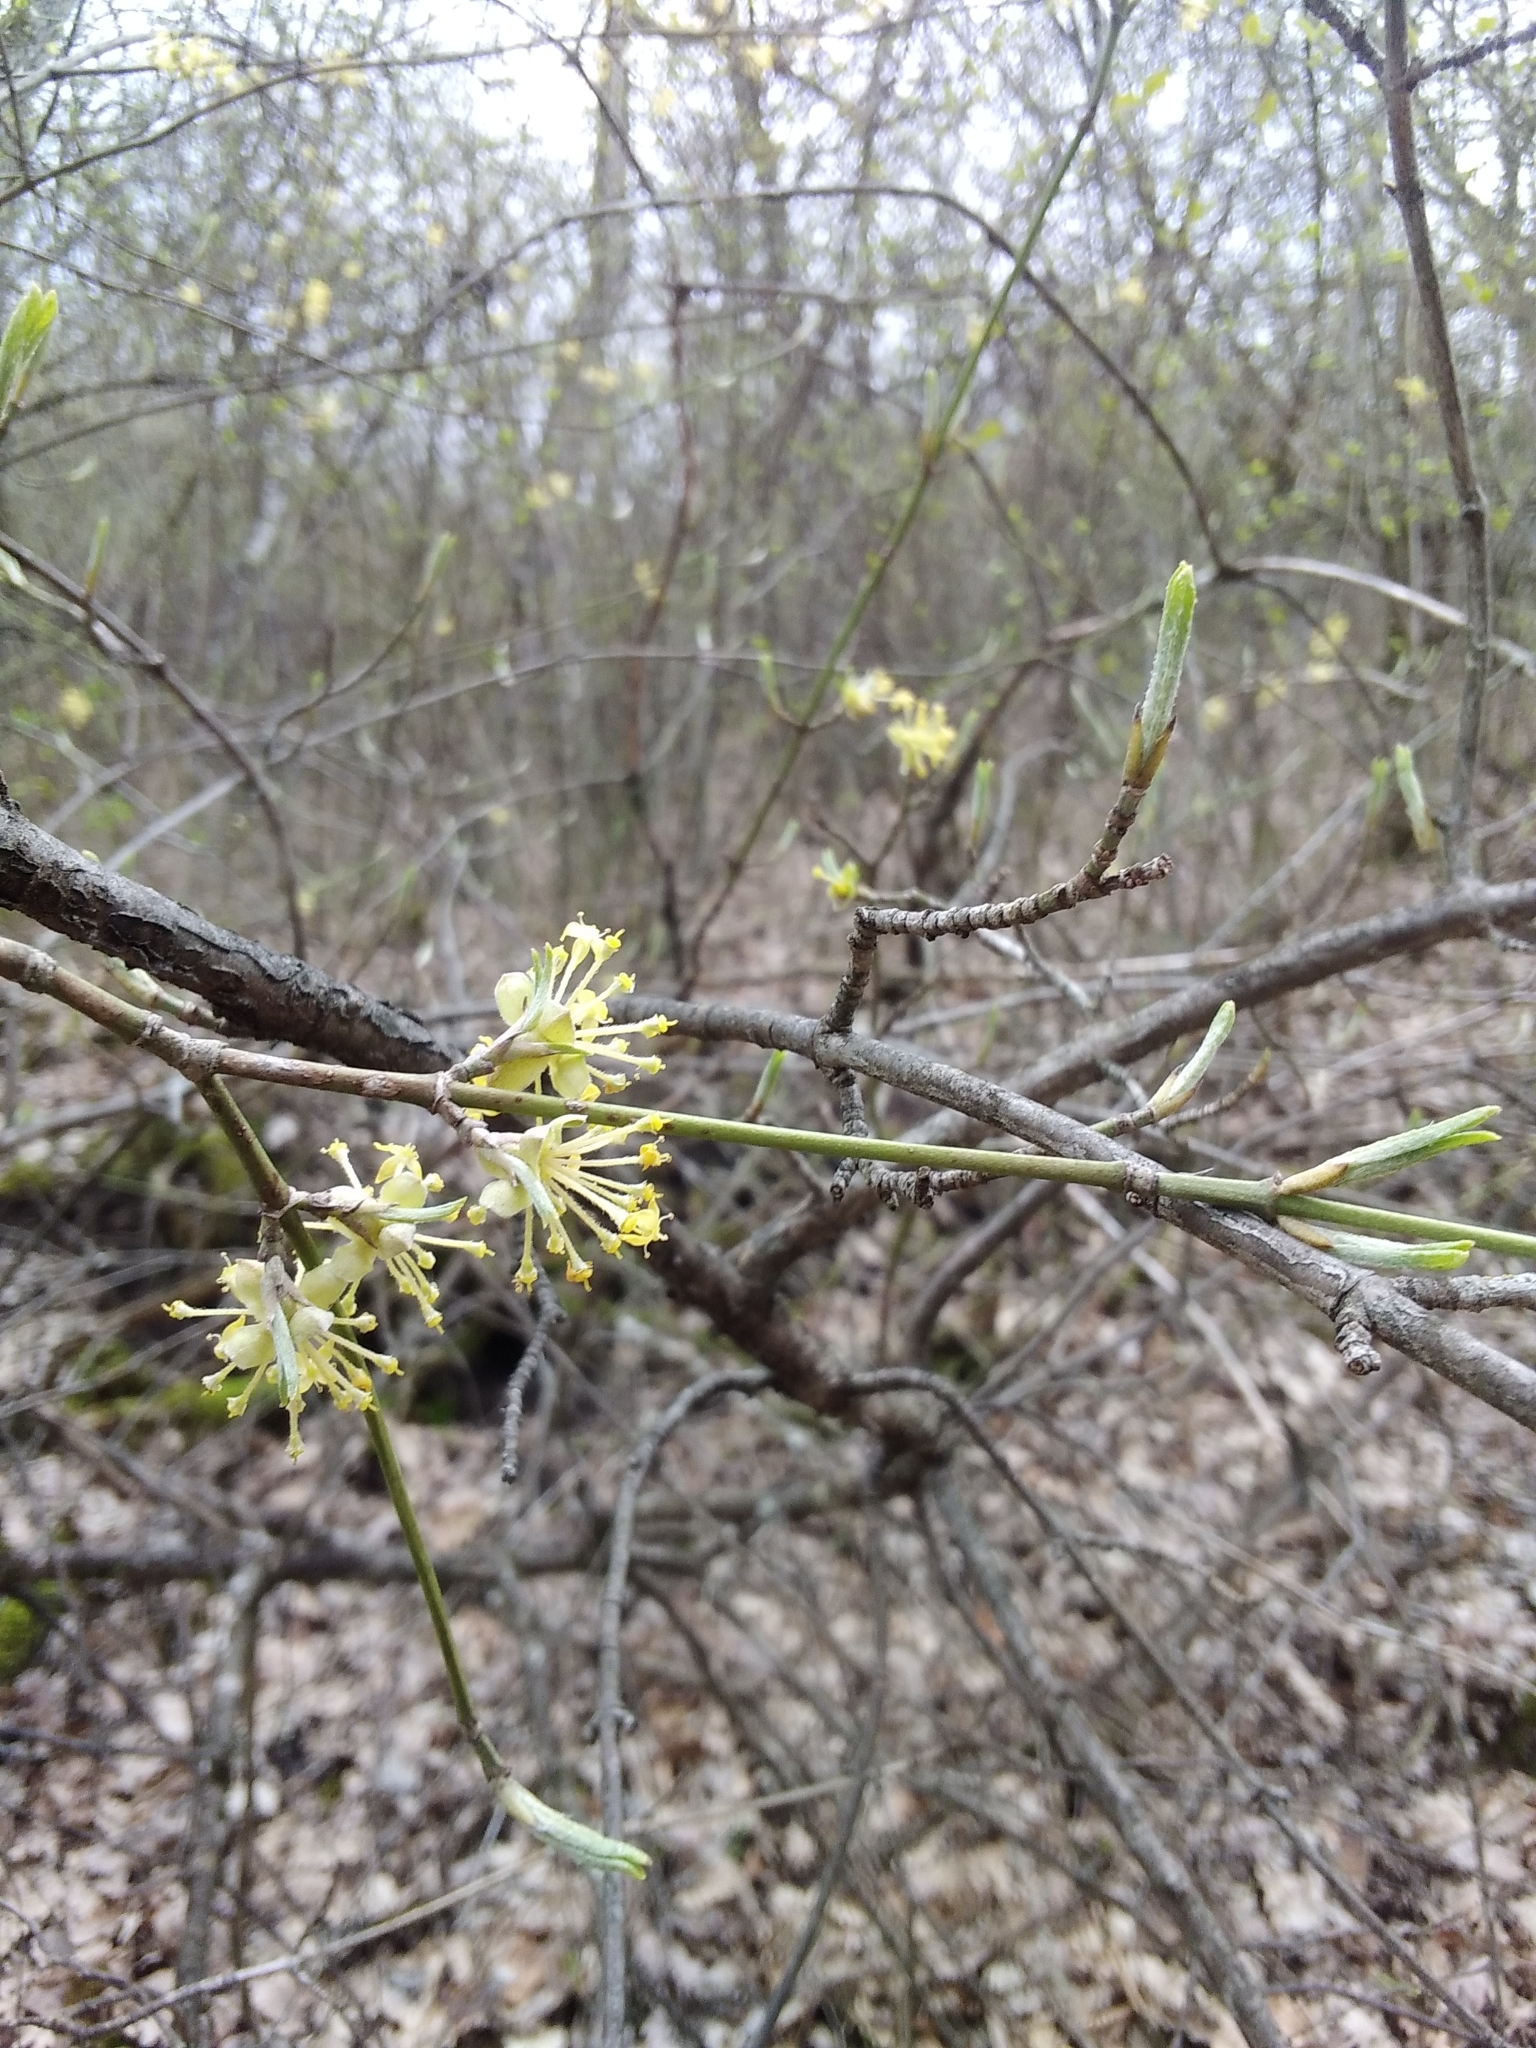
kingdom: Plantae
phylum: Tracheophyta
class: Magnoliopsida
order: Cornales
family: Cornaceae
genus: Cornus
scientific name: Cornus mas
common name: Cornelian-cherry
